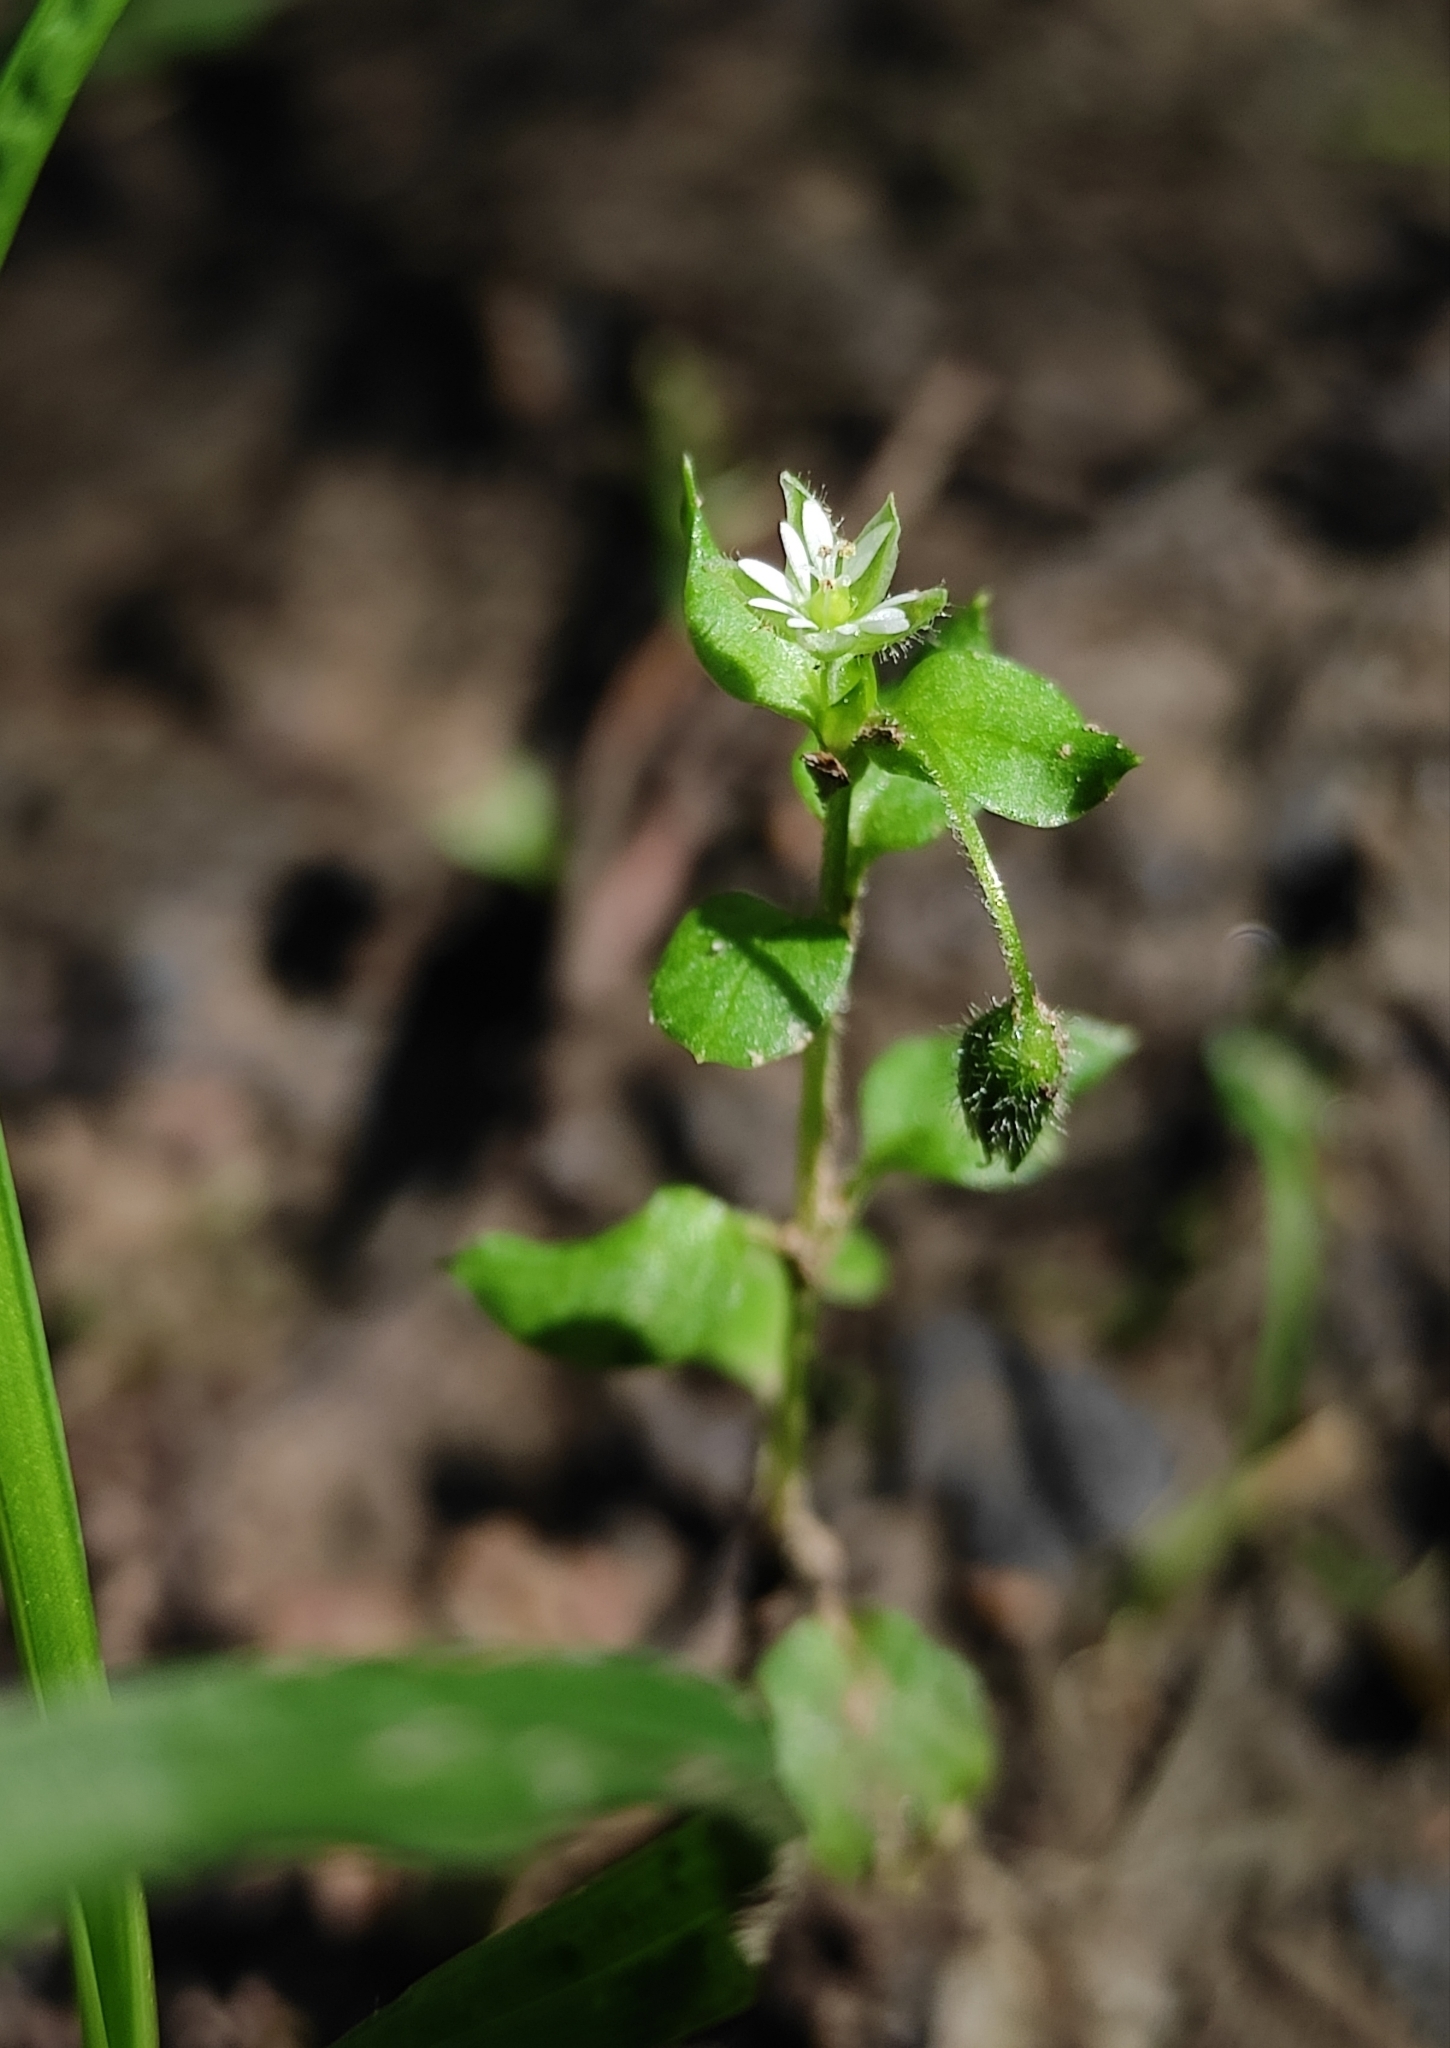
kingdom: Plantae
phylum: Tracheophyta
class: Magnoliopsida
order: Caryophyllales
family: Caryophyllaceae
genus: Stellaria
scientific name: Stellaria media
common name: Common chickweed
